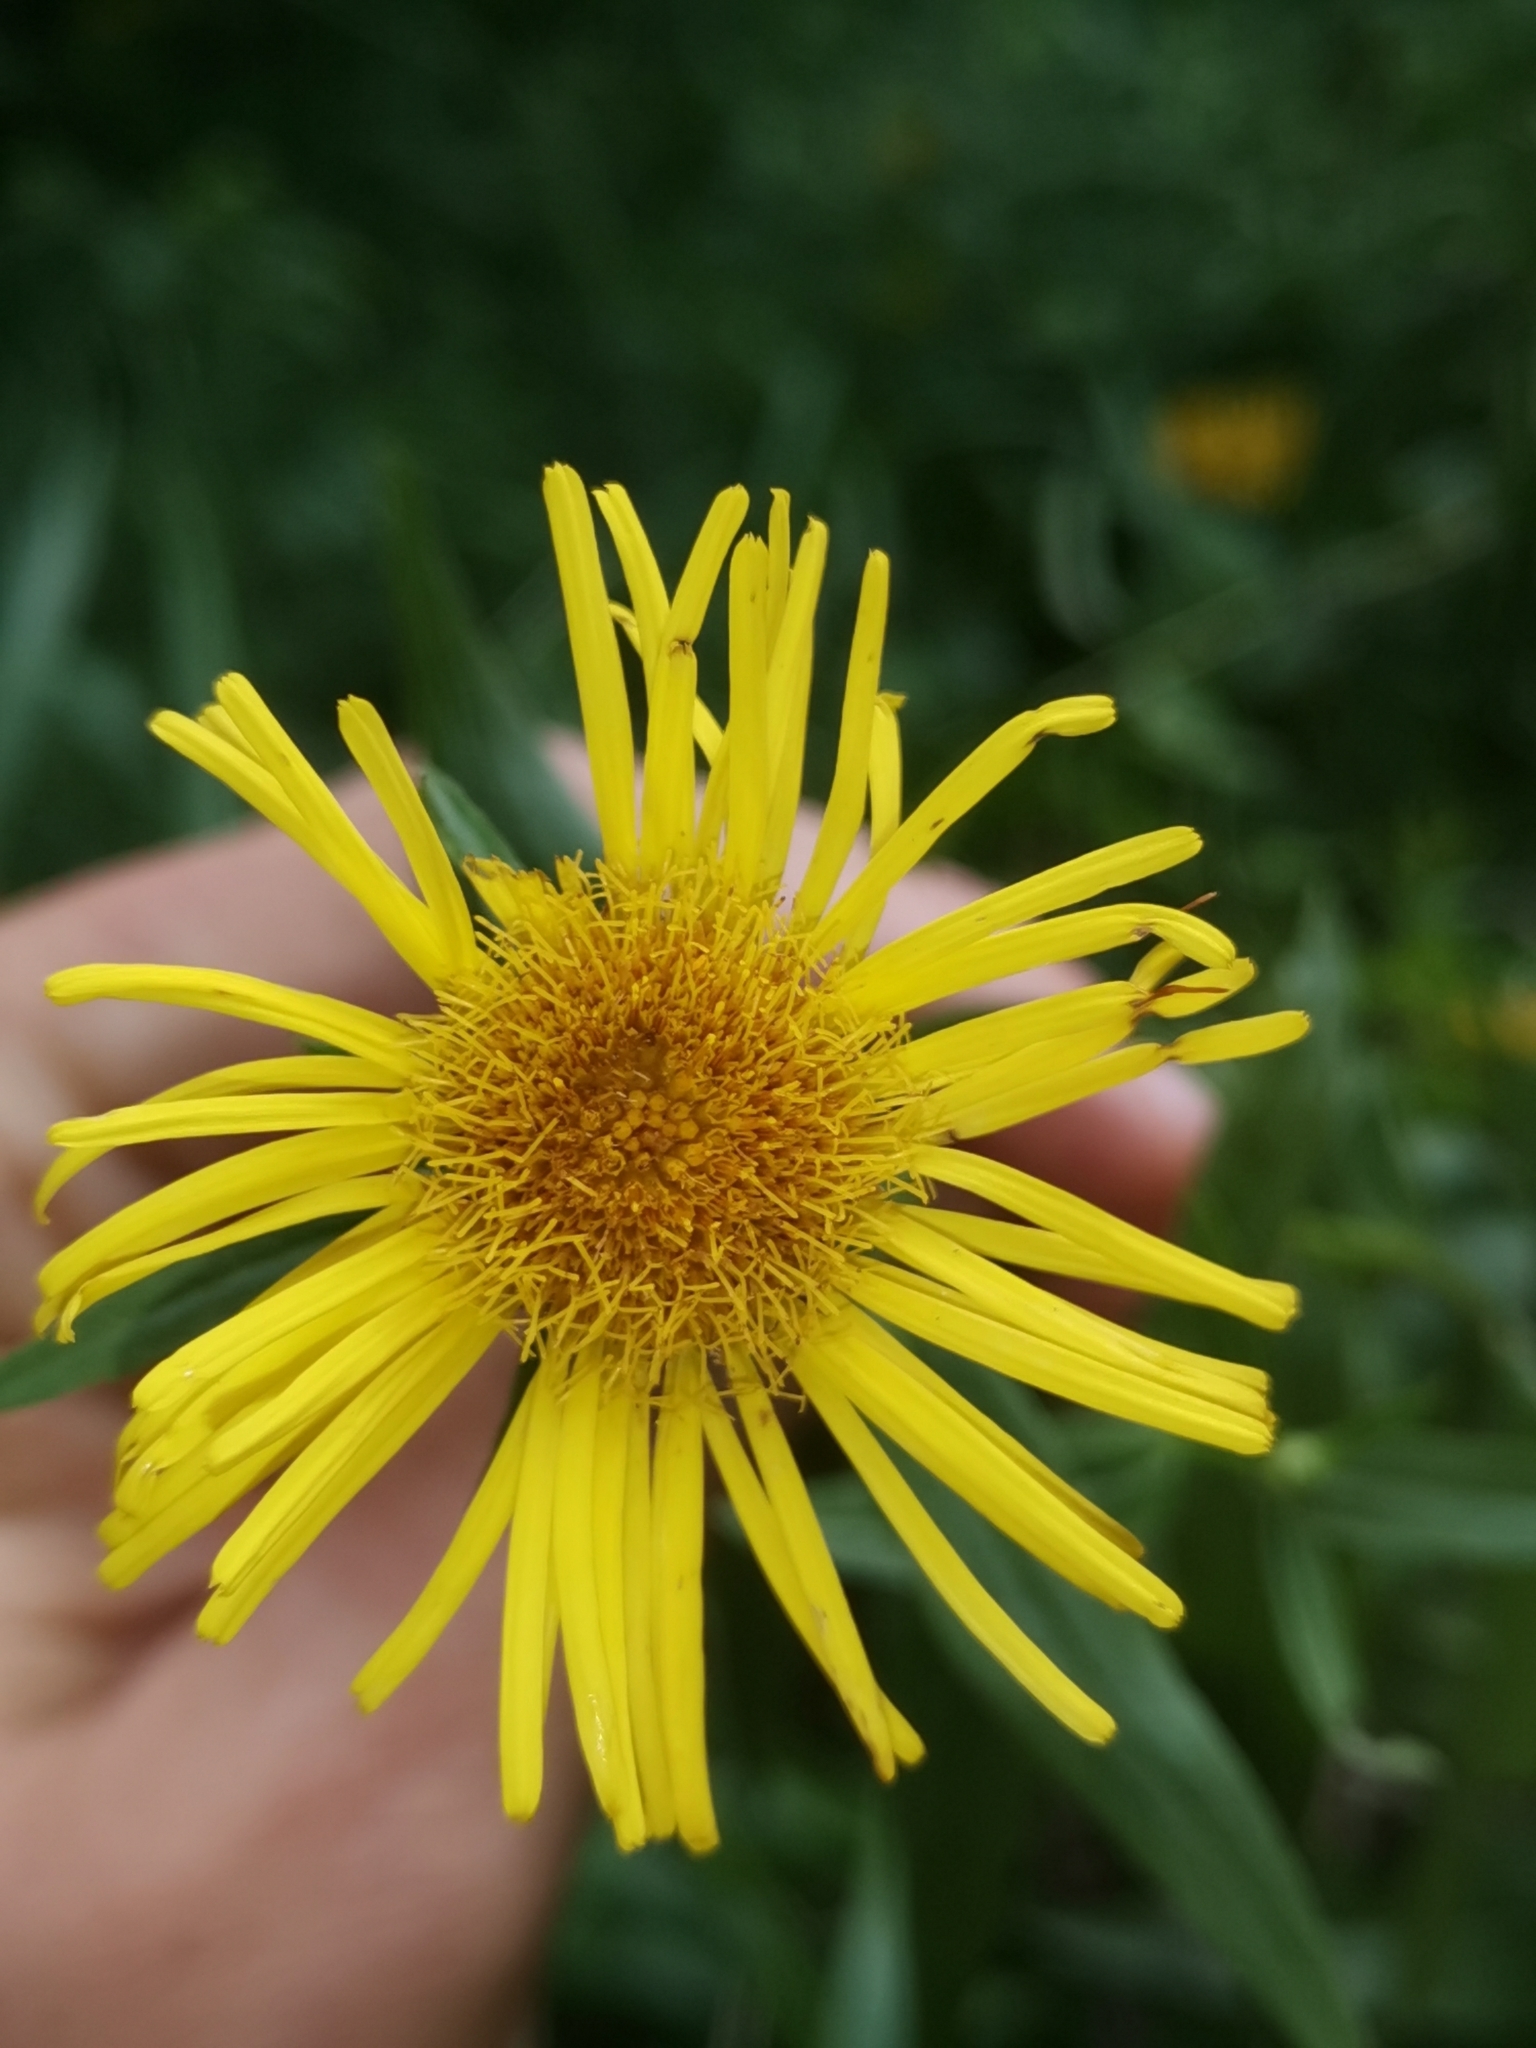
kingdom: Plantae
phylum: Tracheophyta
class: Magnoliopsida
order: Asterales
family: Asteraceae
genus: Pentanema
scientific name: Pentanema salicinum
